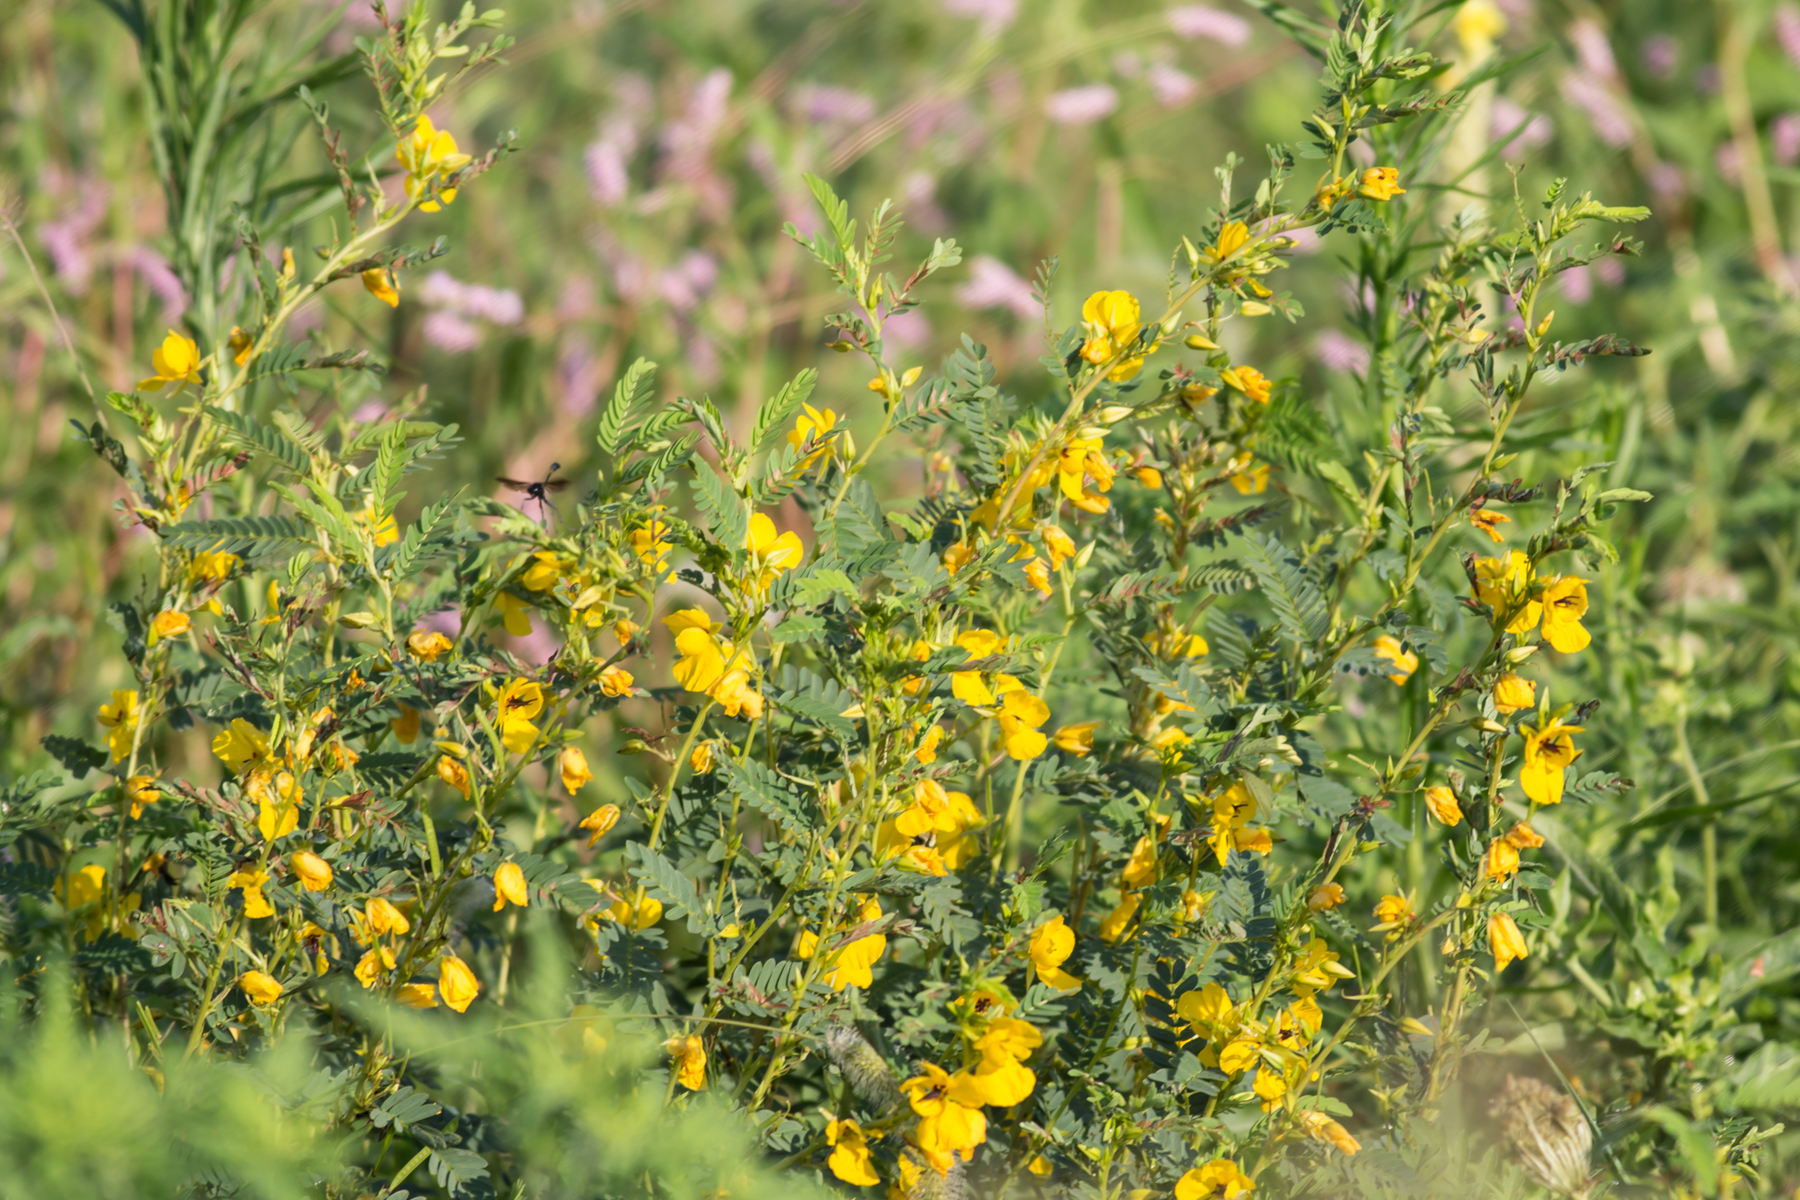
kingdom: Plantae
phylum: Tracheophyta
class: Magnoliopsida
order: Fabales
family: Fabaceae
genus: Chamaecrista
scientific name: Chamaecrista fasciculata
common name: Golden cassia
